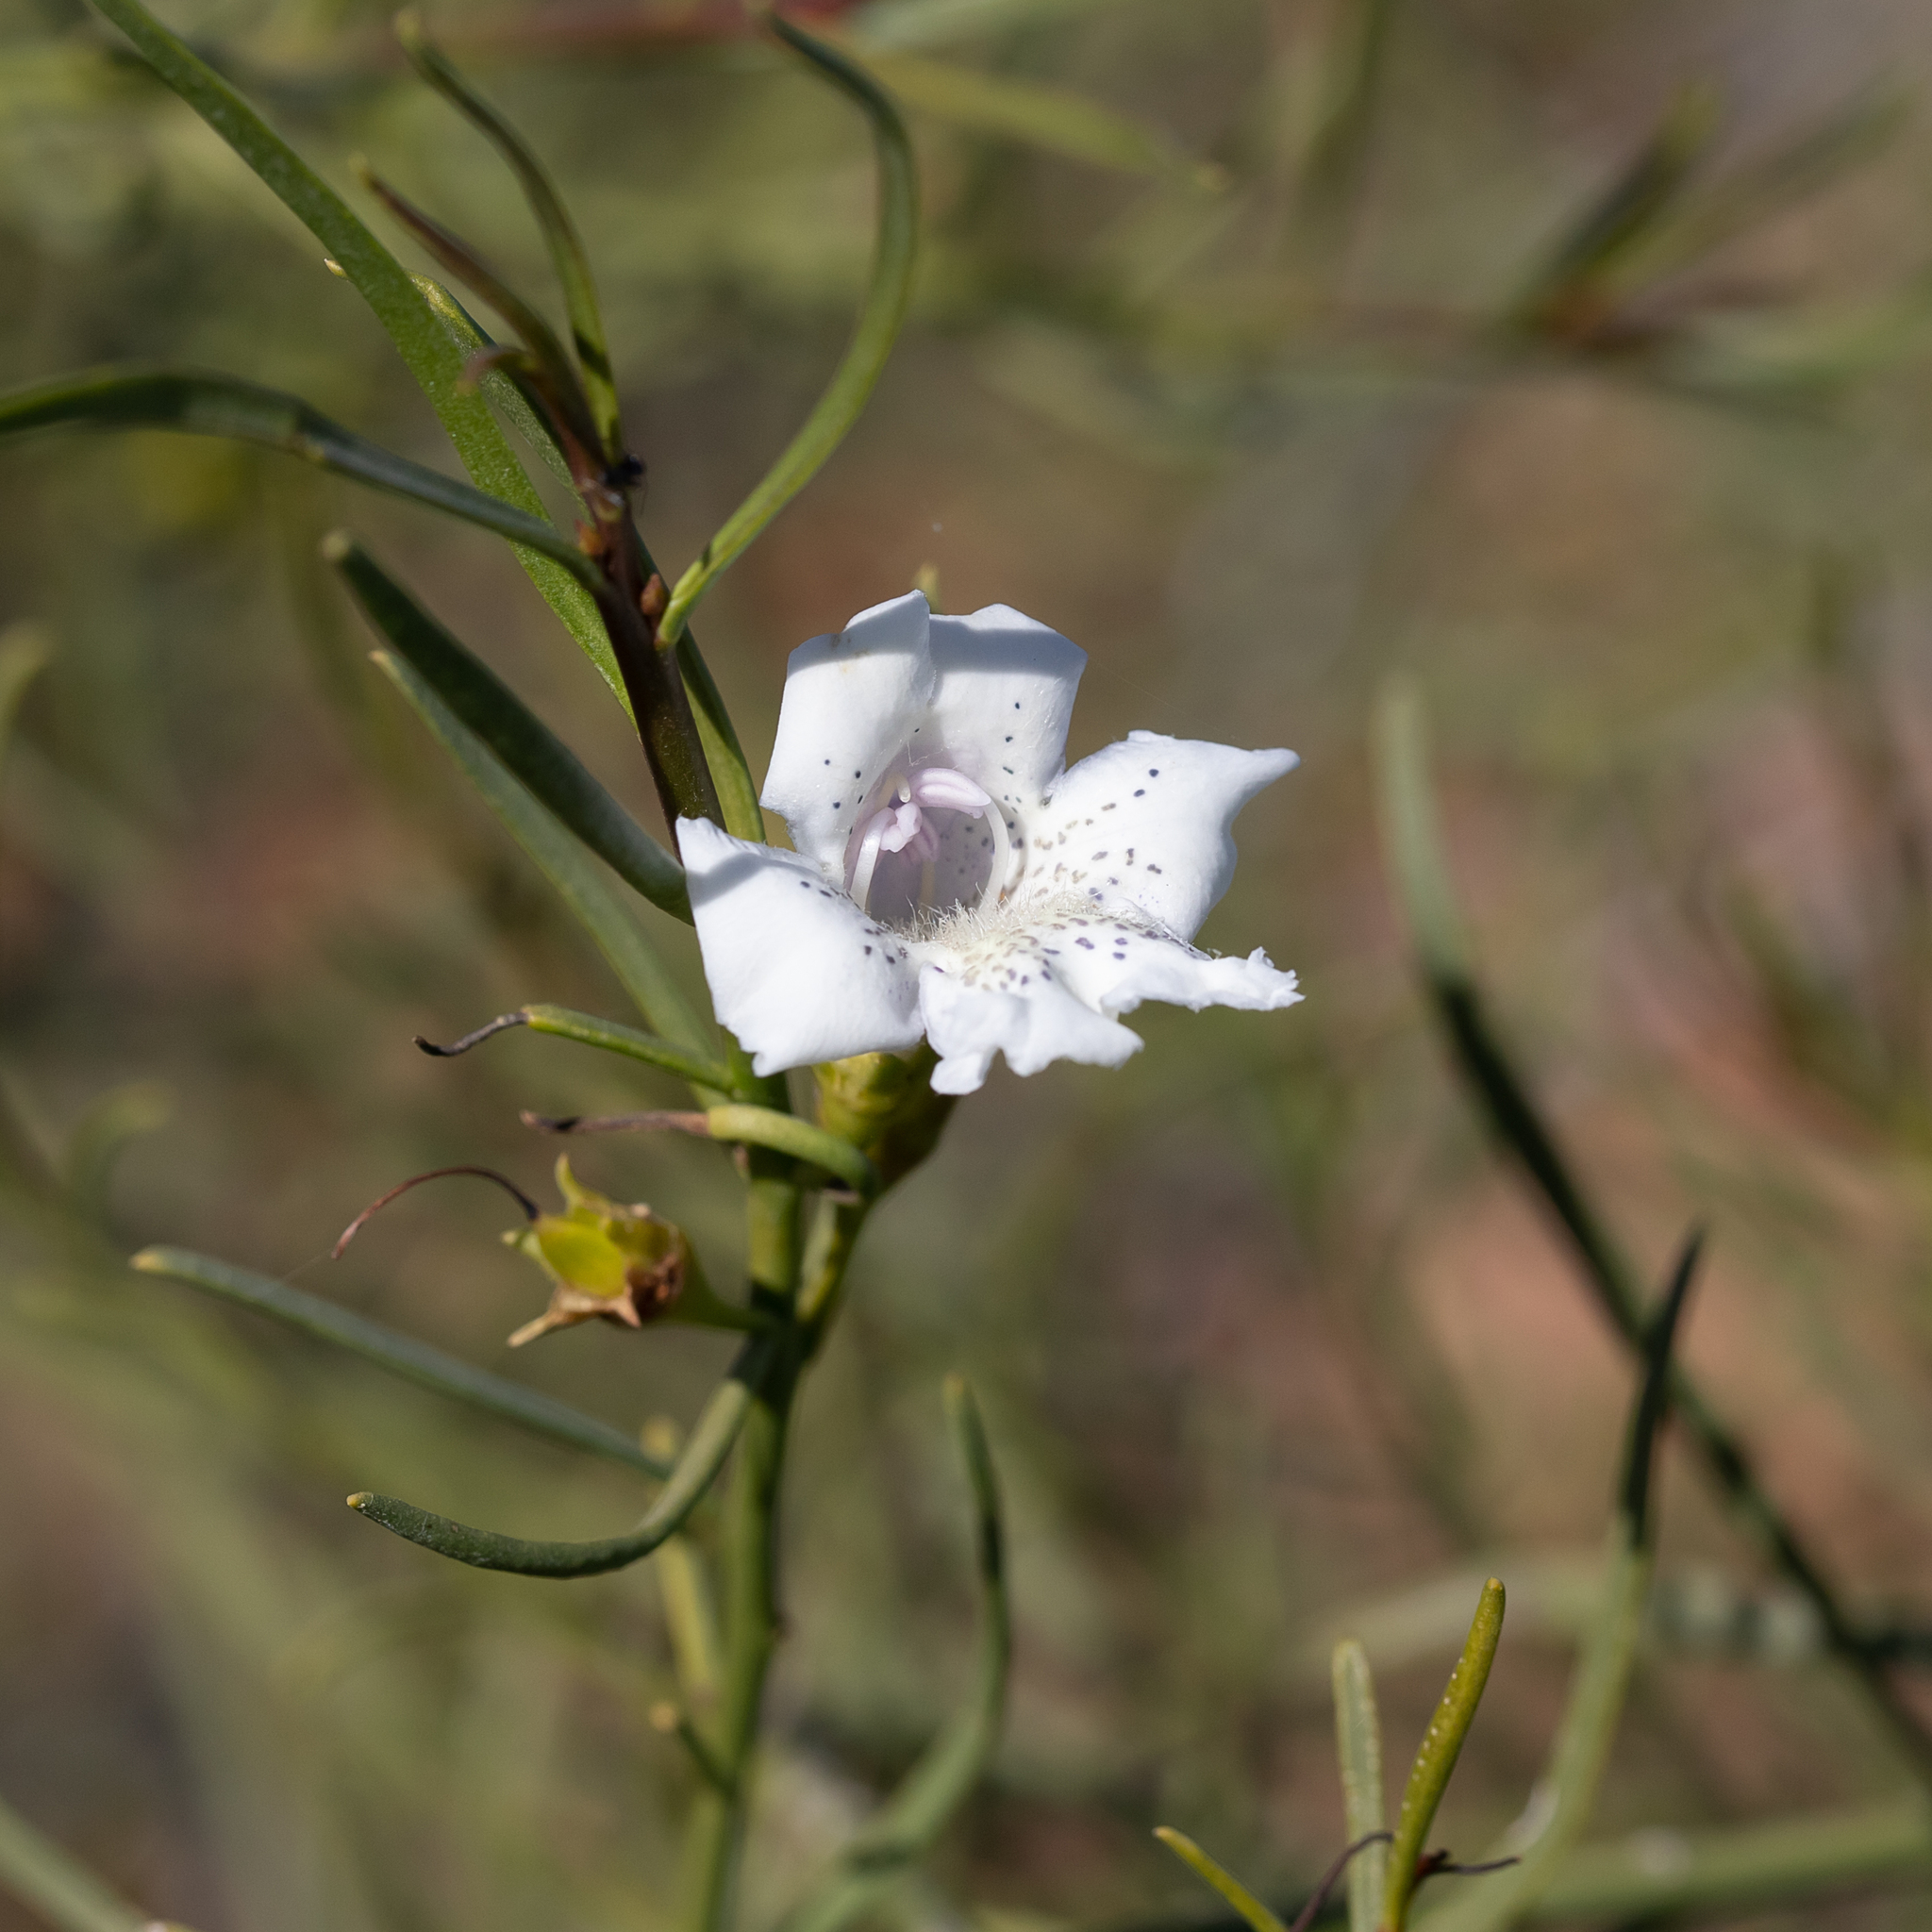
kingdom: Plantae
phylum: Tracheophyta
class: Magnoliopsida
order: Lamiales
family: Scrophulariaceae
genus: Eremophila
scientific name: Eremophila polyclada
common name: Lignum-fuchsia
